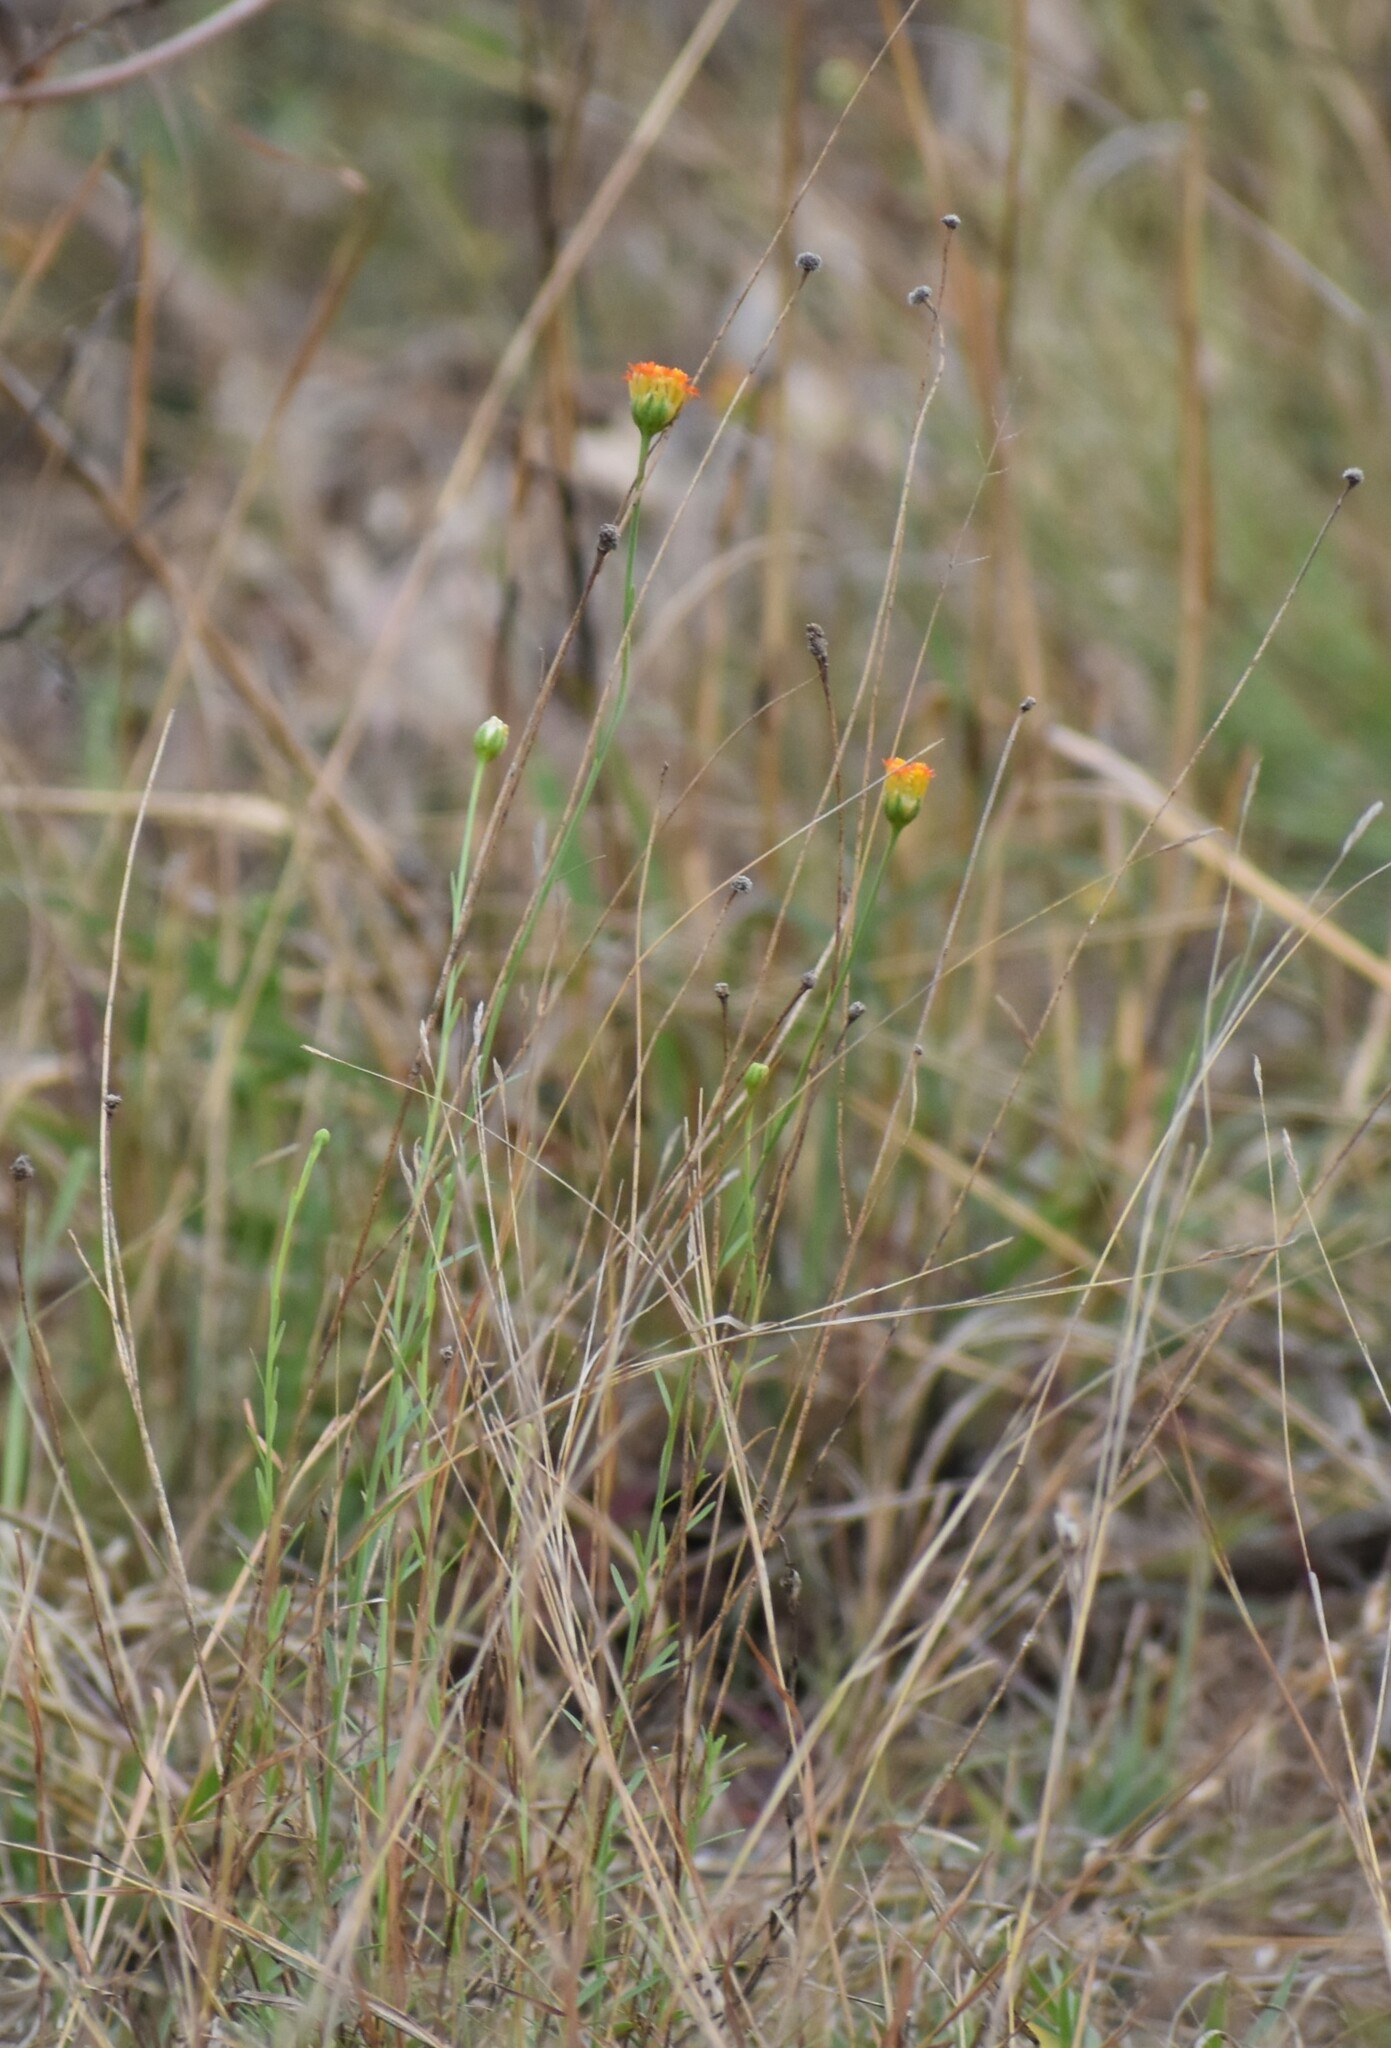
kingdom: Plantae
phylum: Tracheophyta
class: Magnoliopsida
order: Malvales
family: Thymelaeaceae
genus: Gnidia
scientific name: Gnidia rubescens
